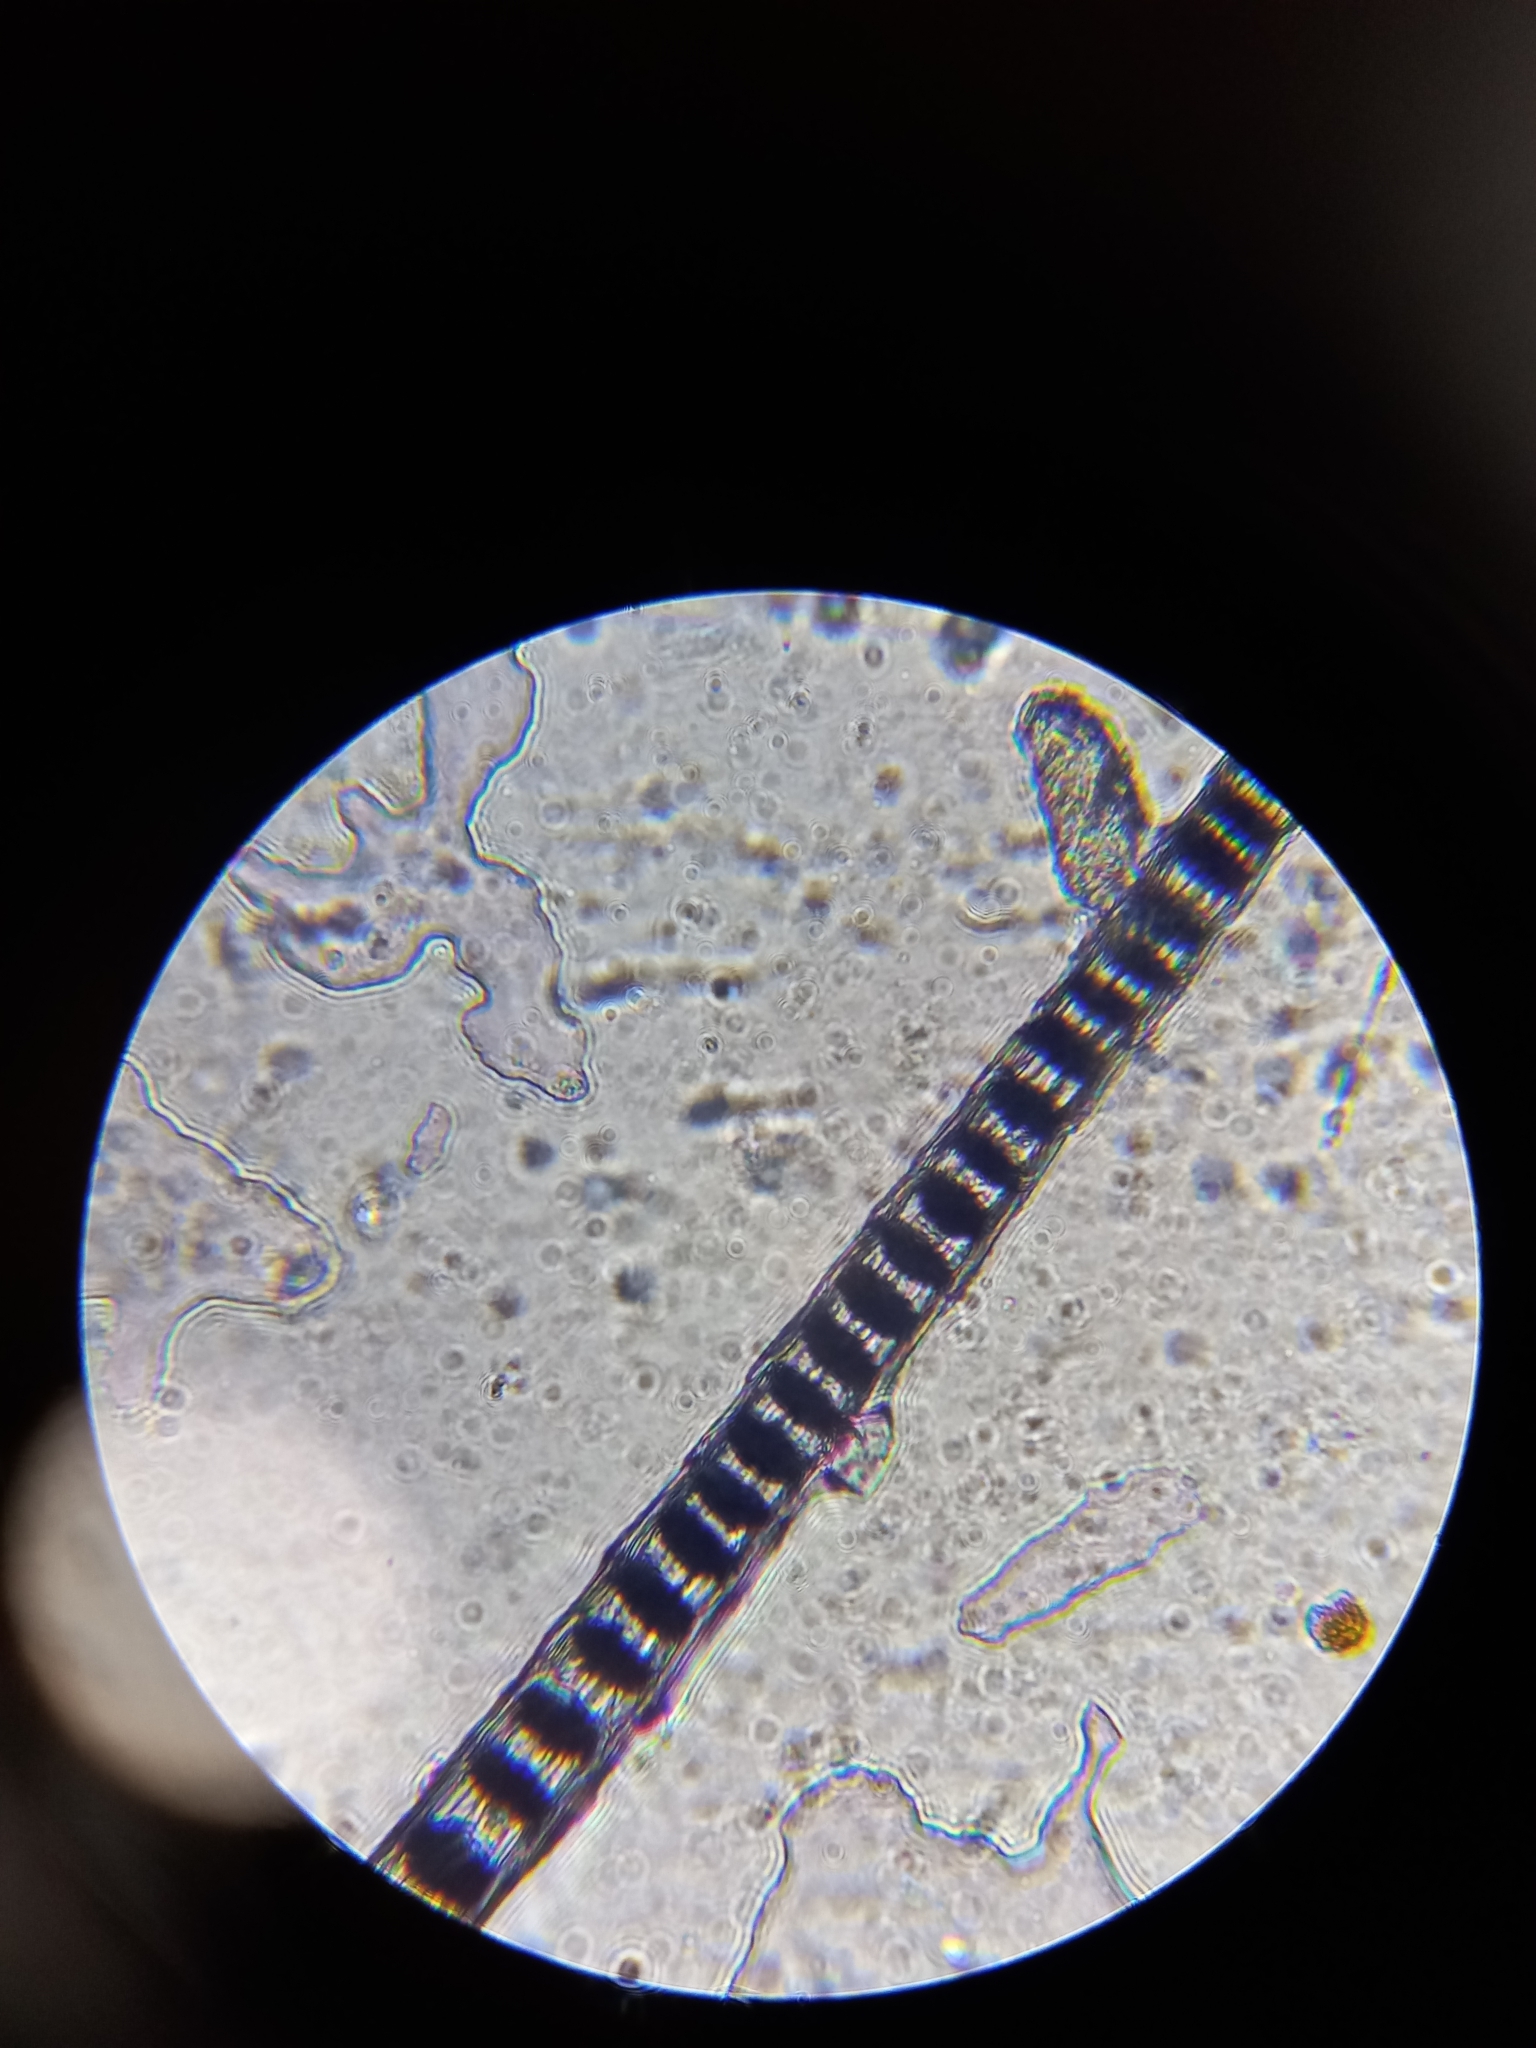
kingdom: Animalia
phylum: Chordata
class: Mammalia
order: Rodentia
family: Gliridae
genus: Muscardinus
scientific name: Muscardinus avellanarius
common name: Hazel dormouse
